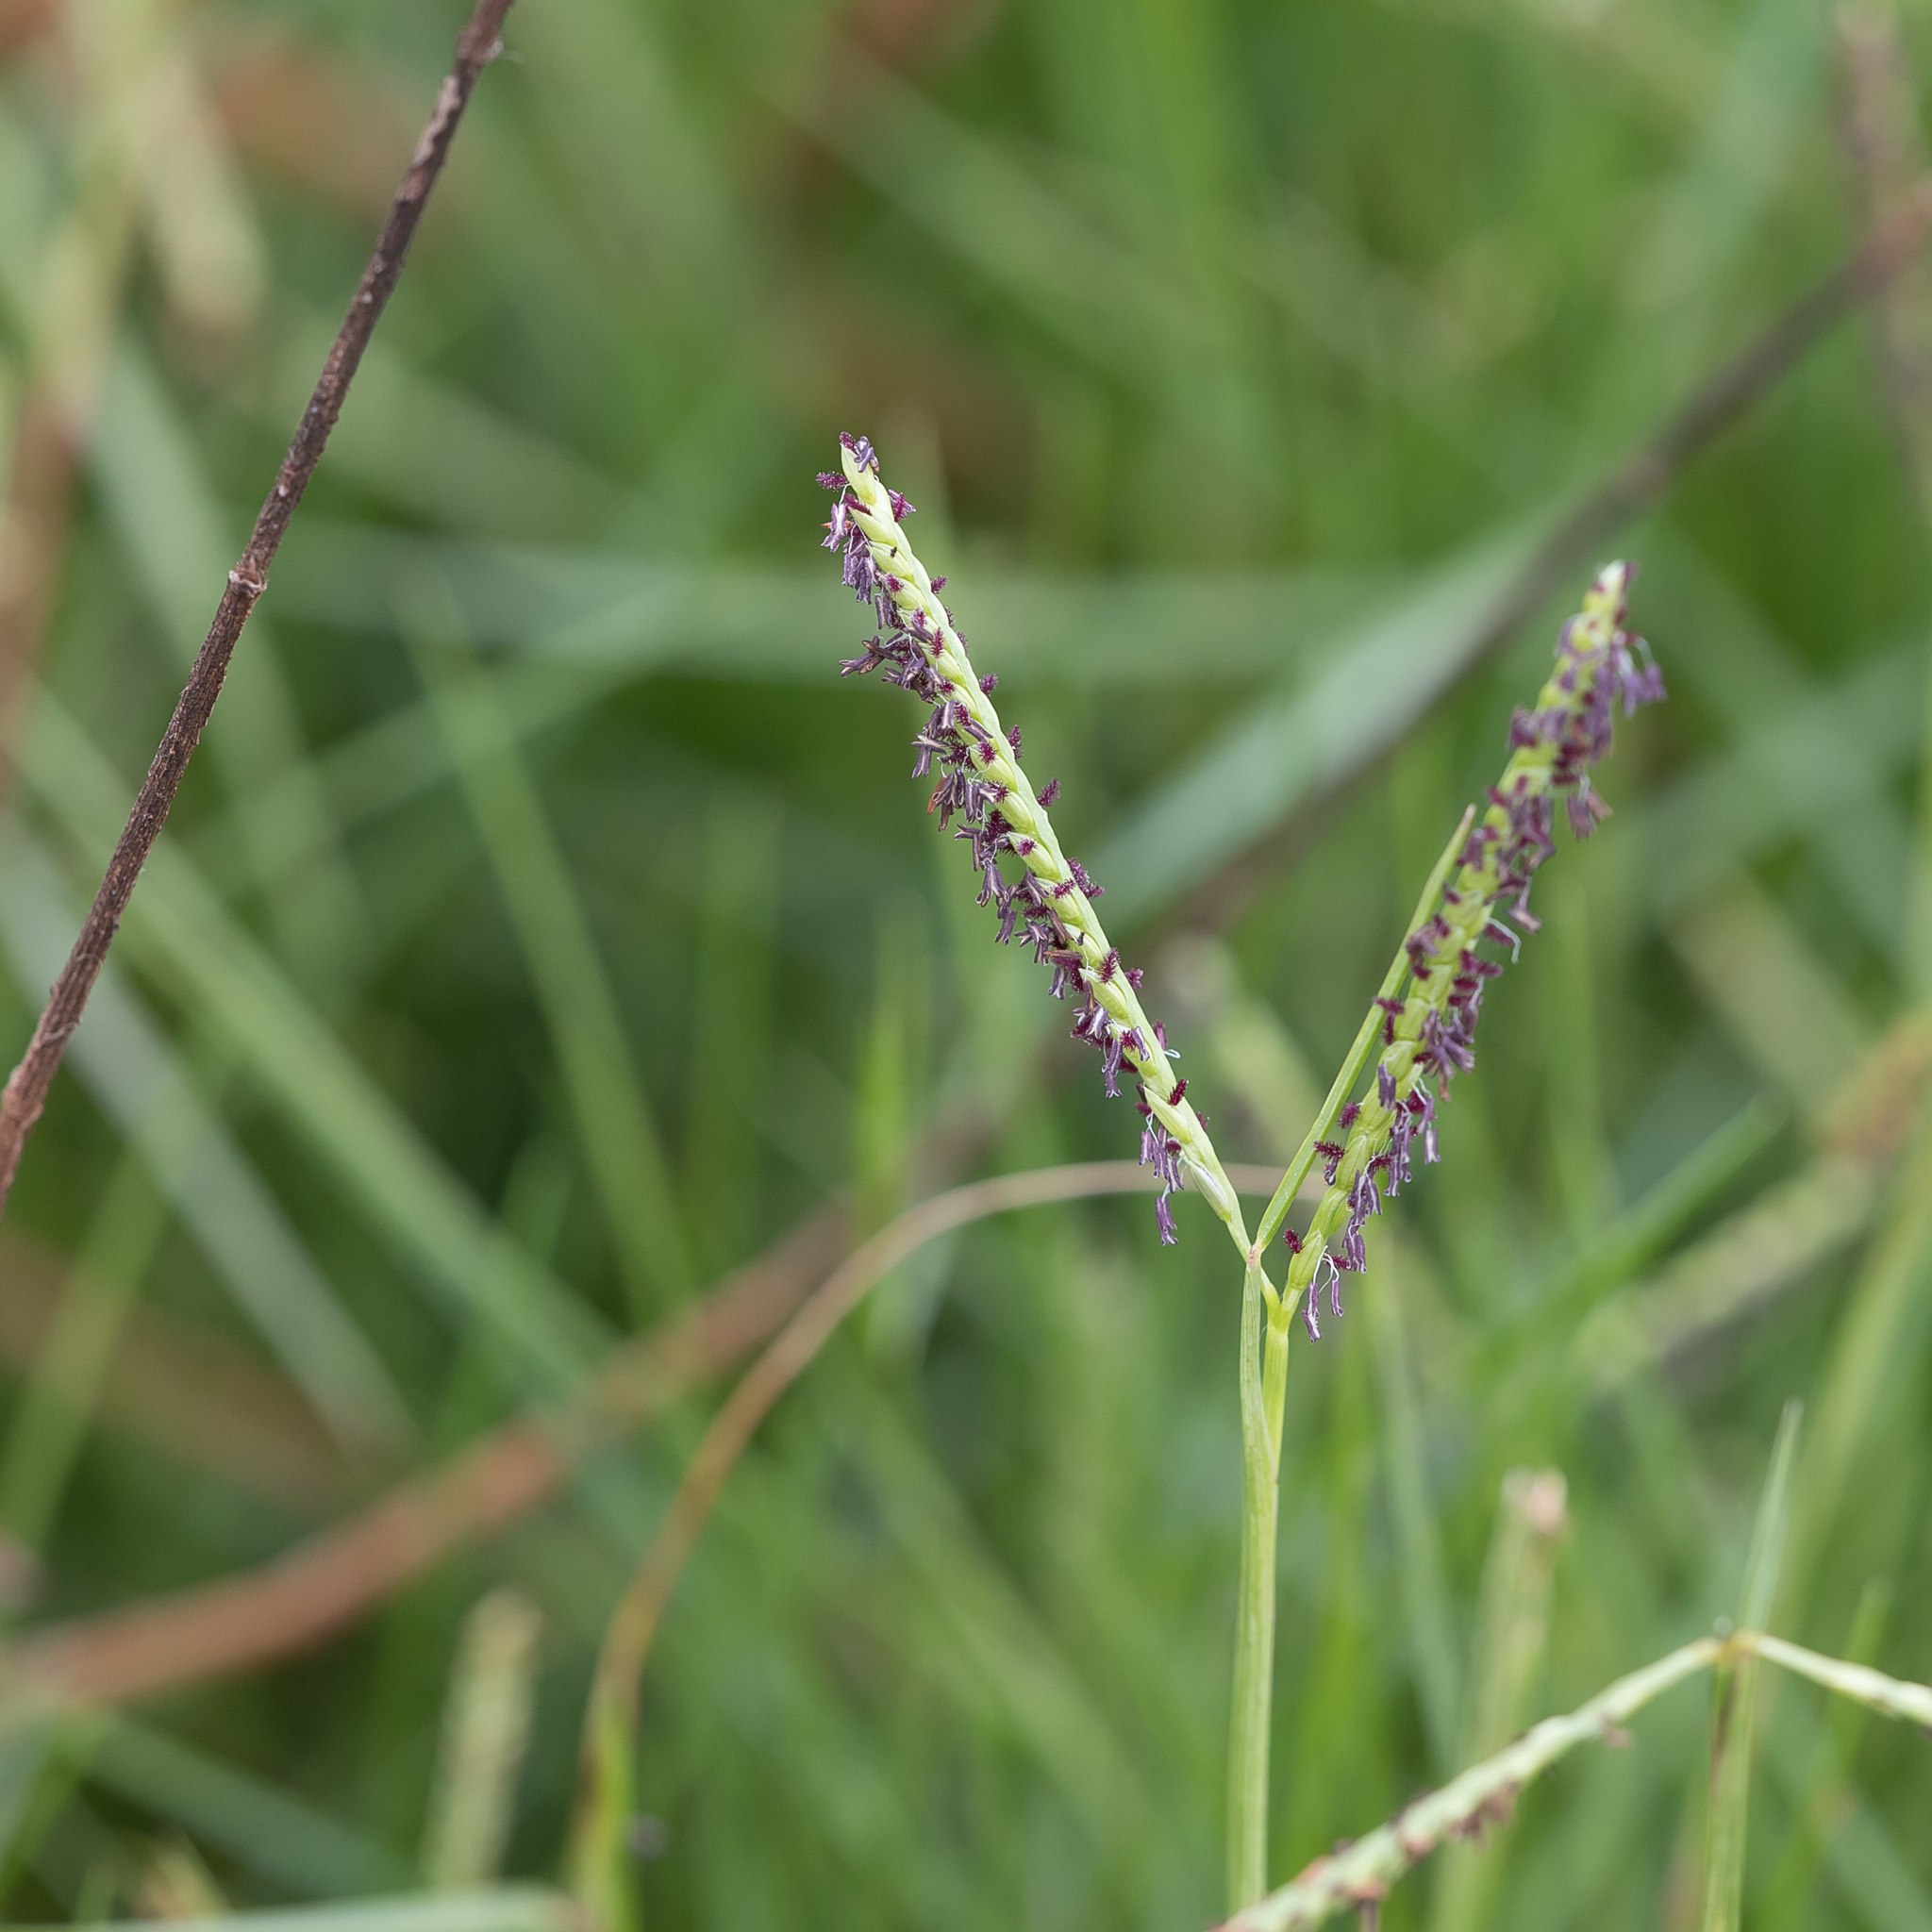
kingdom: Plantae
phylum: Tracheophyta
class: Liliopsida
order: Poales
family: Poaceae
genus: Paspalum
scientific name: Paspalum vaginatum
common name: Seashore paspalum
